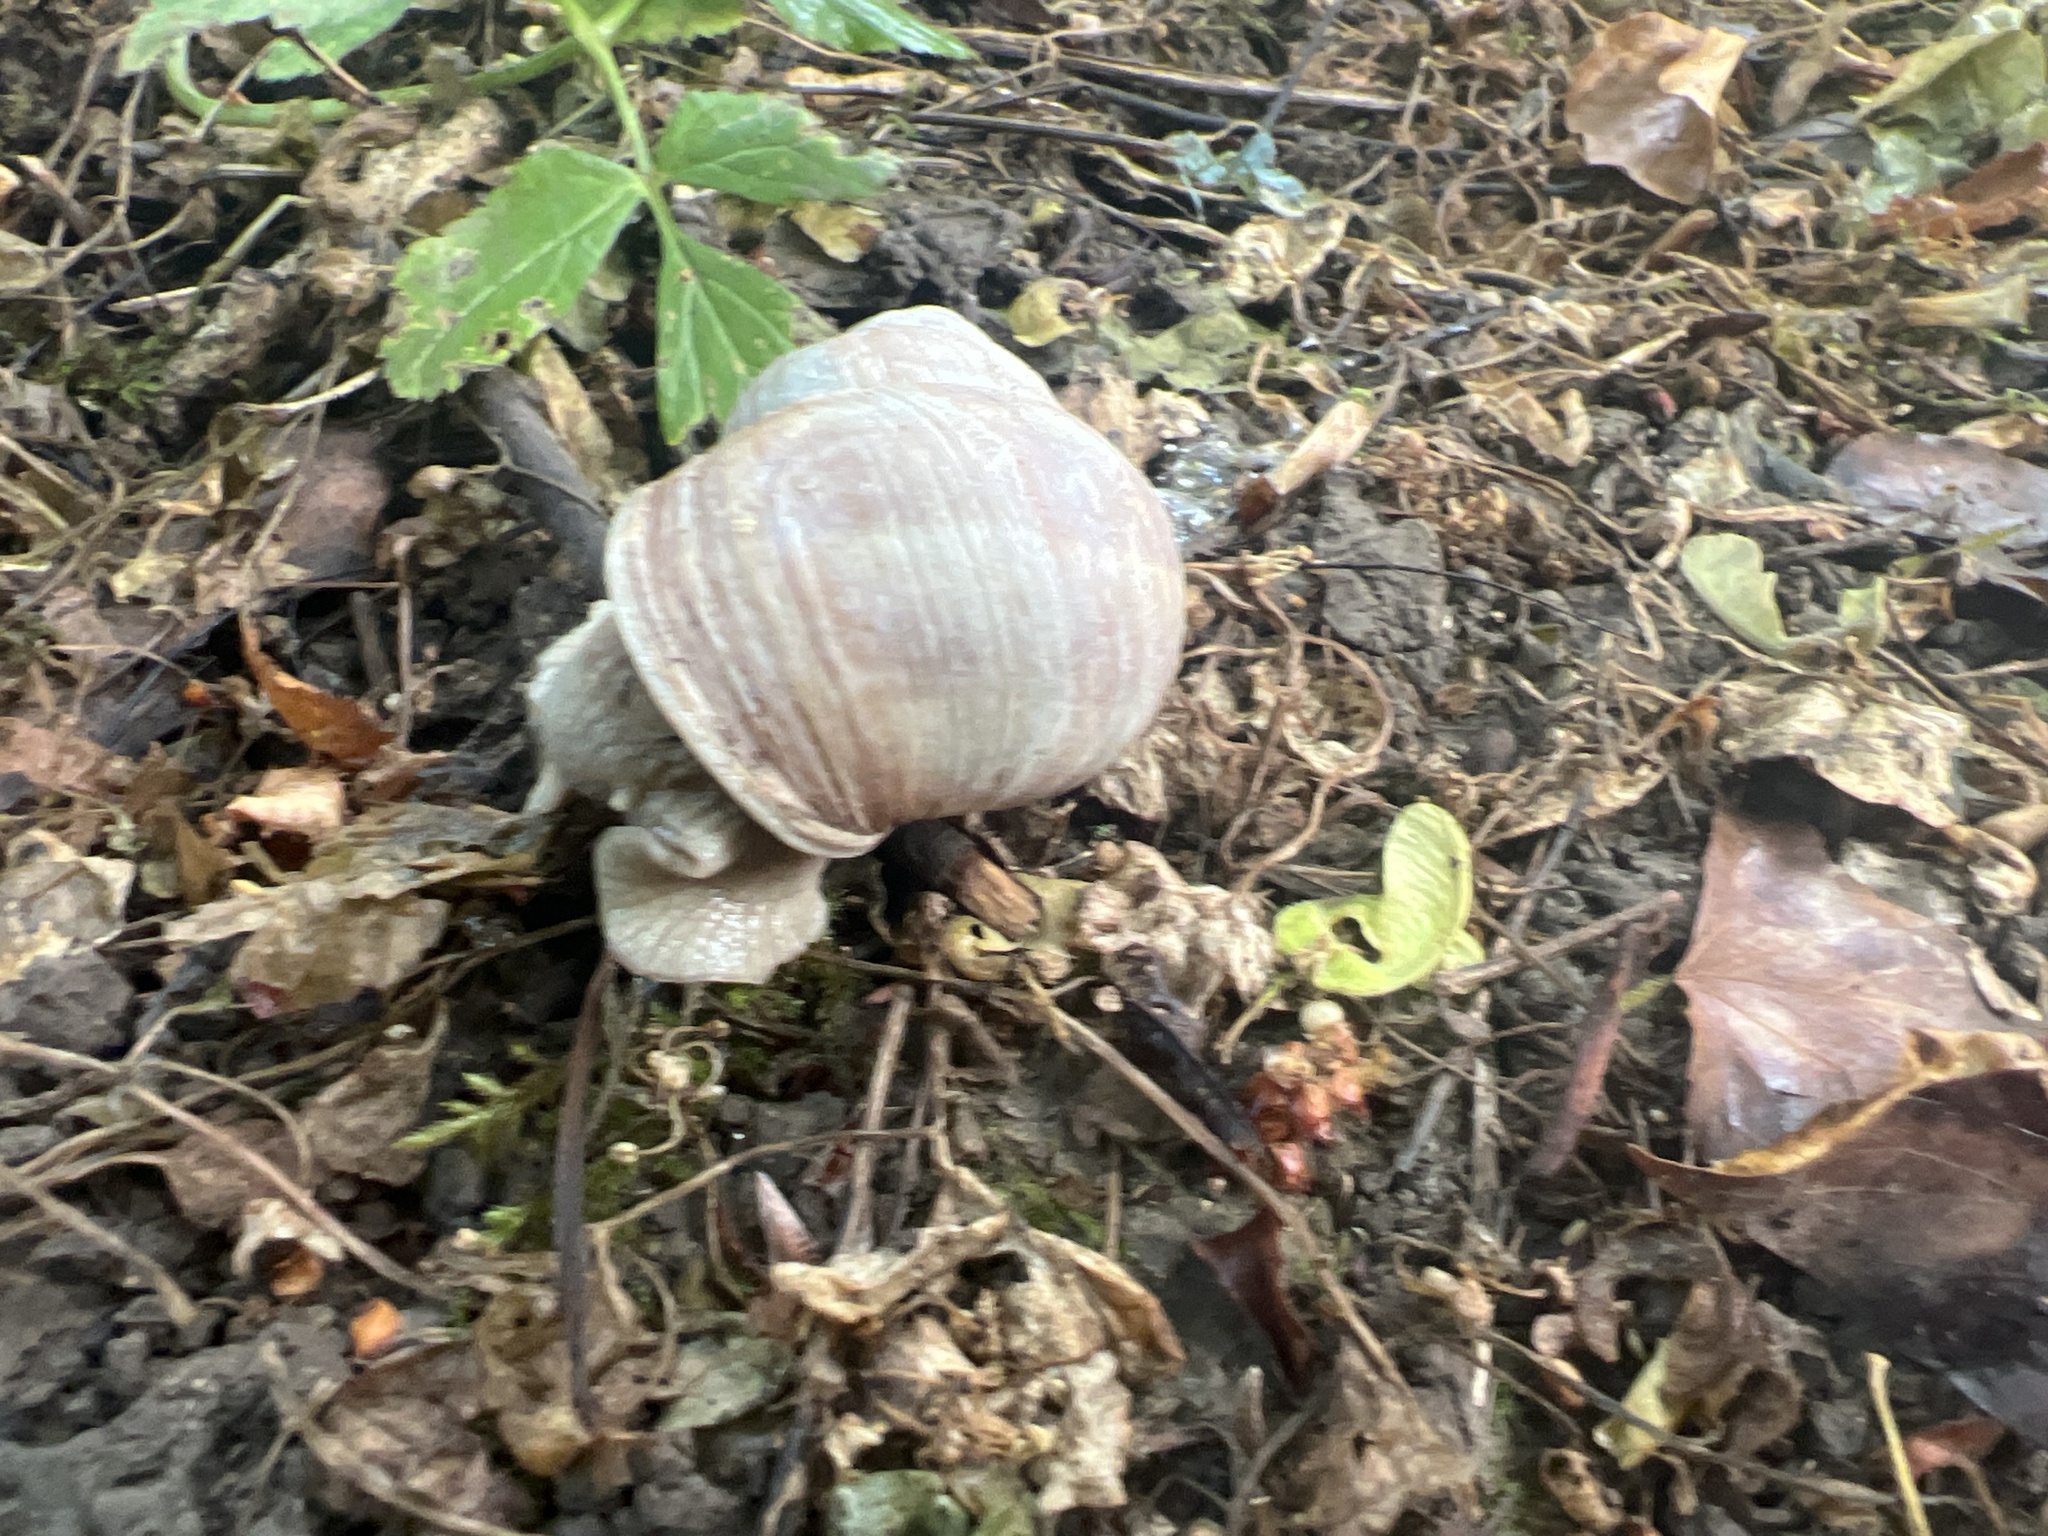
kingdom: Animalia
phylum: Mollusca
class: Gastropoda
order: Stylommatophora
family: Helicidae
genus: Helix
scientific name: Helix pomatia
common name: Roman snail
